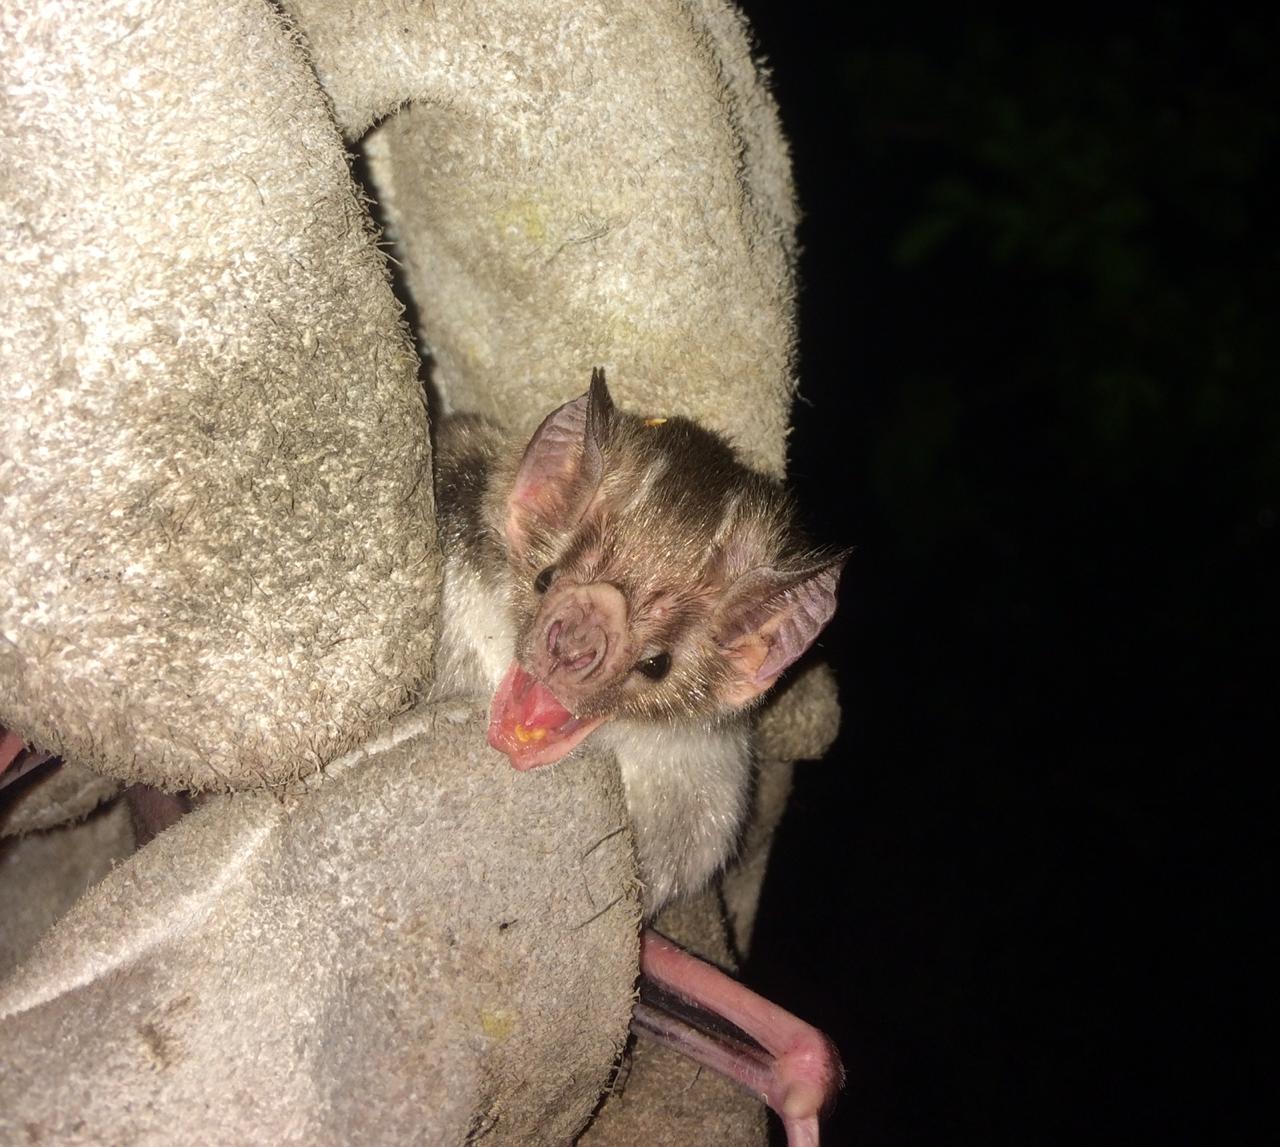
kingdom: Animalia
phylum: Chordata
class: Mammalia
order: Chiroptera
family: Phyllostomidae
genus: Desmodus
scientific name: Desmodus rotundus
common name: Common vampire bat
